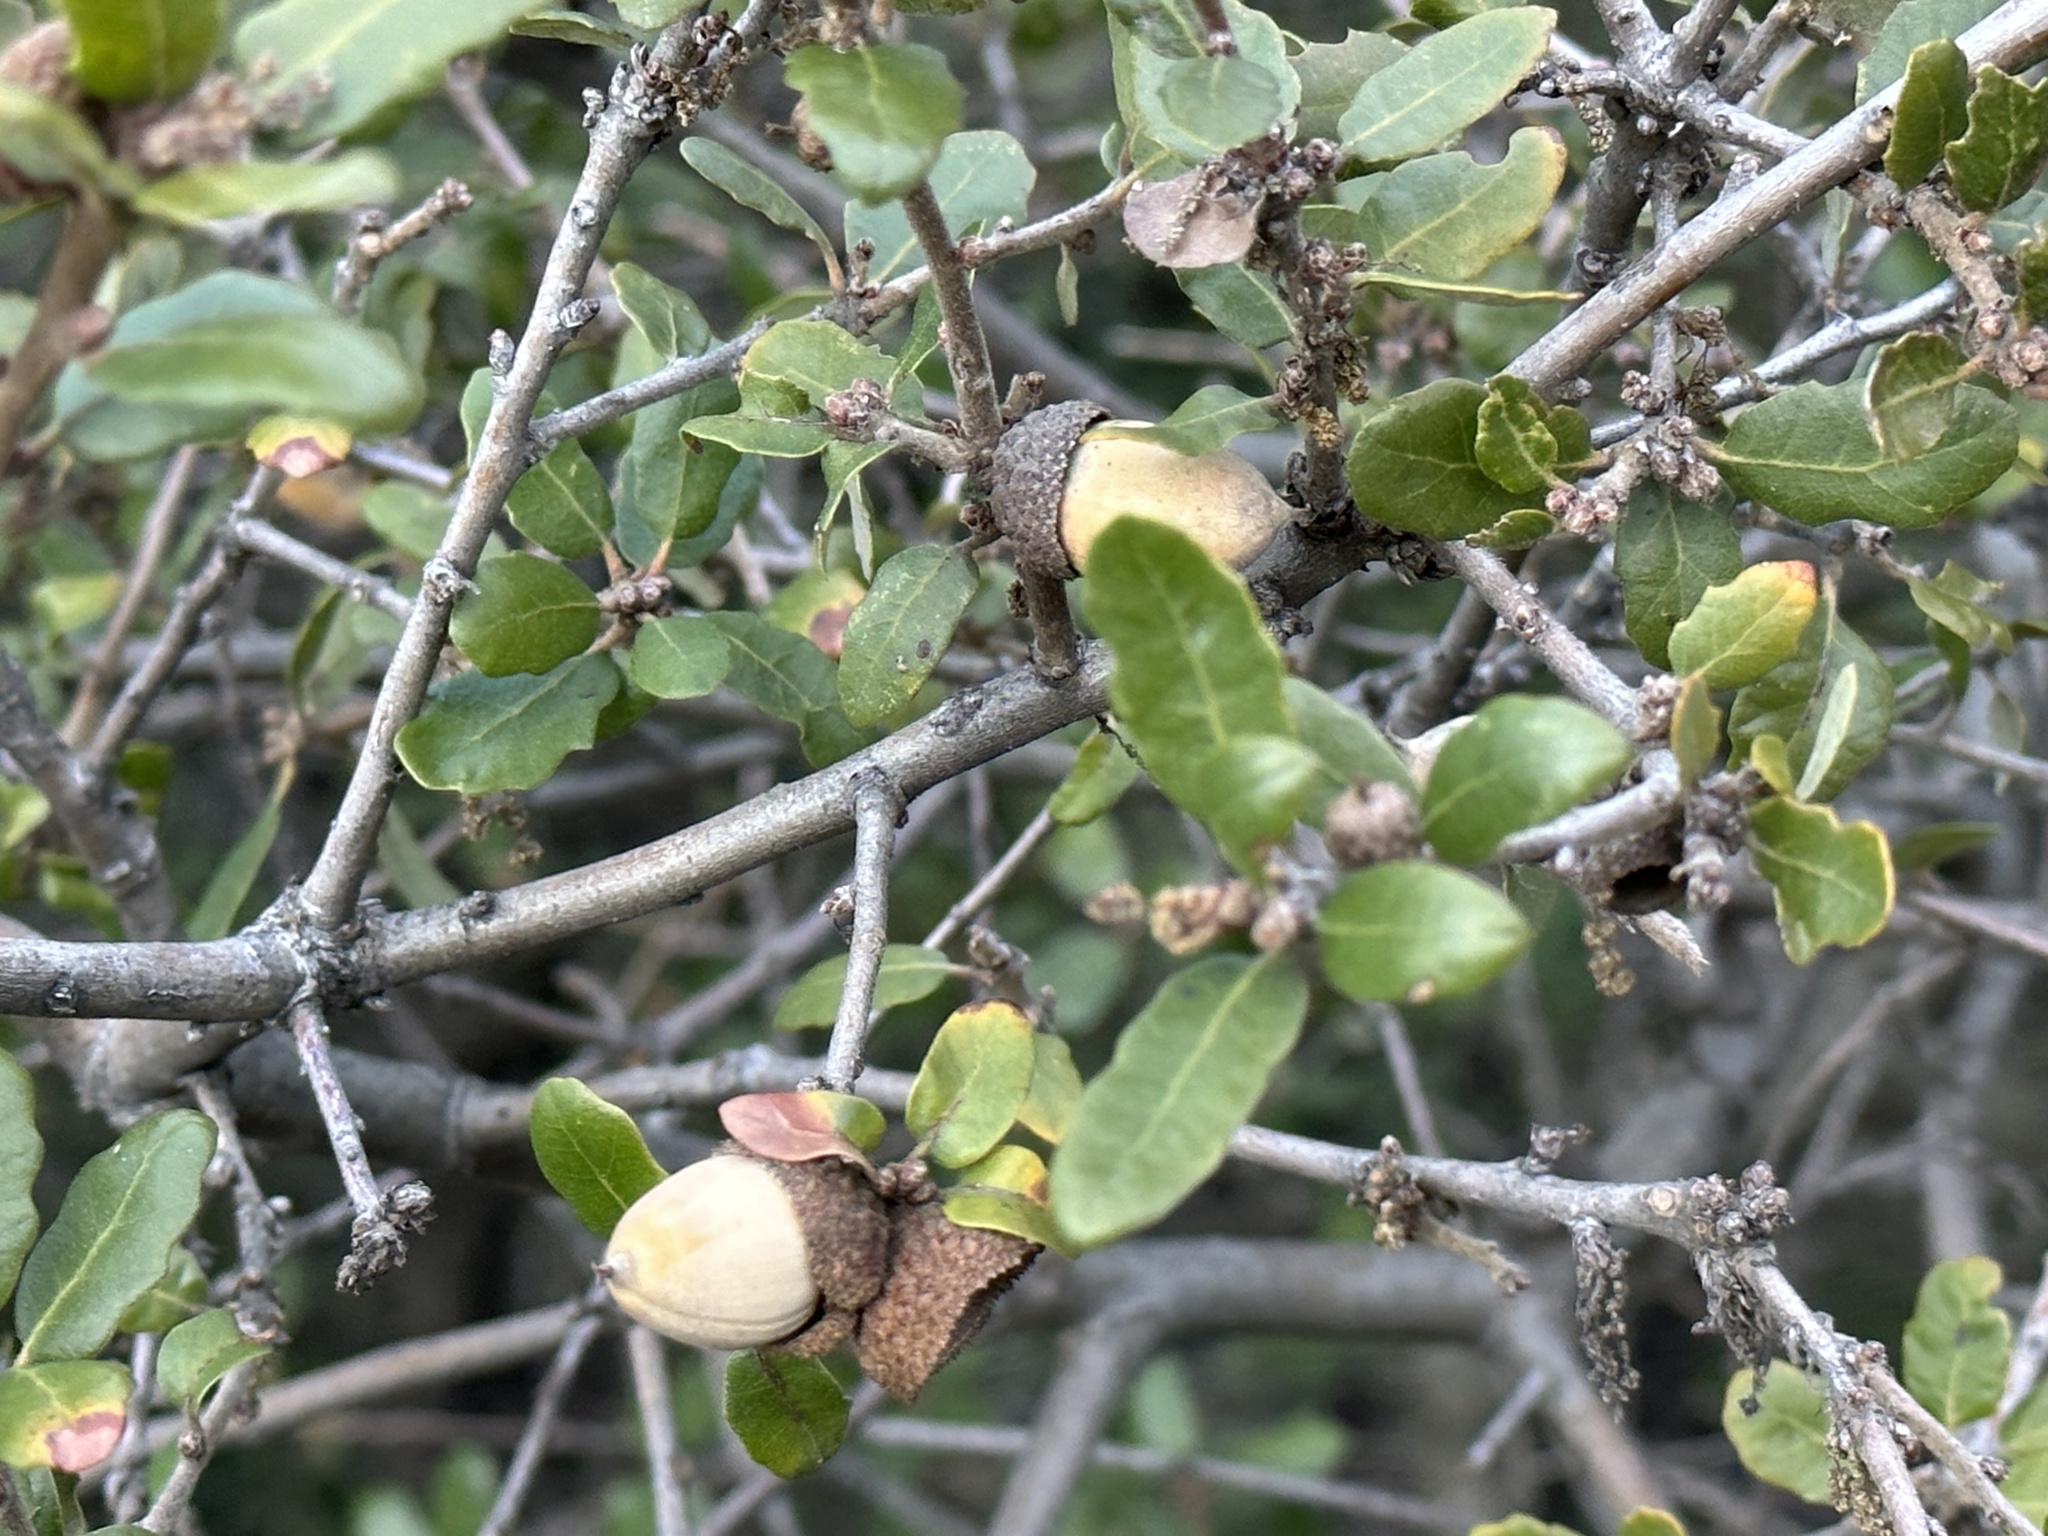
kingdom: Plantae
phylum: Tracheophyta
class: Magnoliopsida
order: Fagales
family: Fagaceae
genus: Quercus
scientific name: Quercus berberidifolia
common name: California scrub oak
